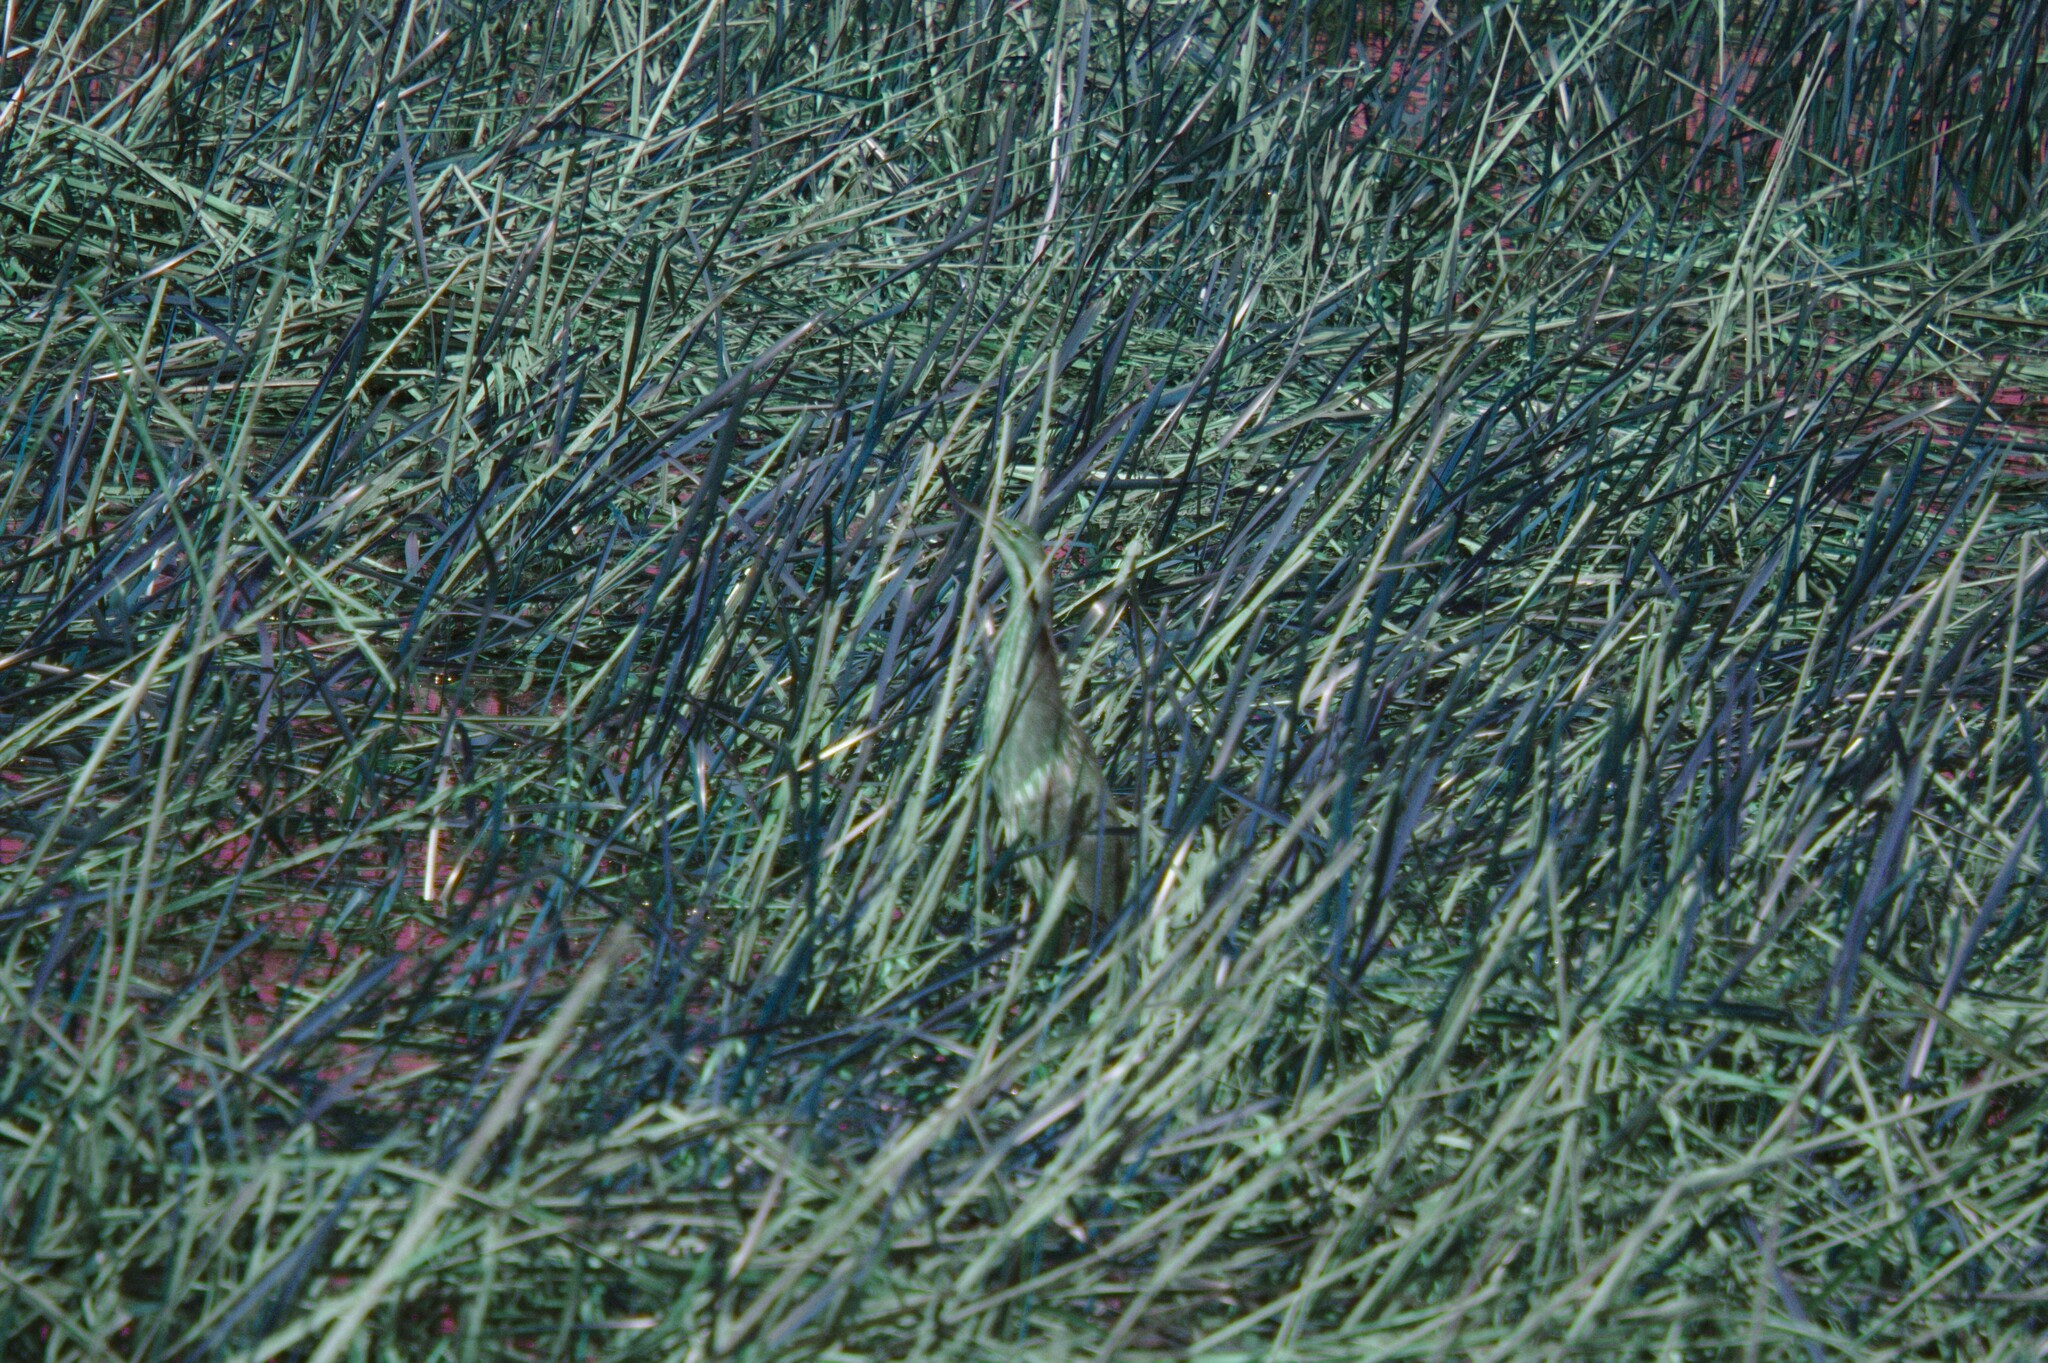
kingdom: Animalia
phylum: Chordata
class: Aves
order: Pelecaniformes
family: Ardeidae
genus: Botaurus
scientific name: Botaurus lentiginosus
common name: American bittern
